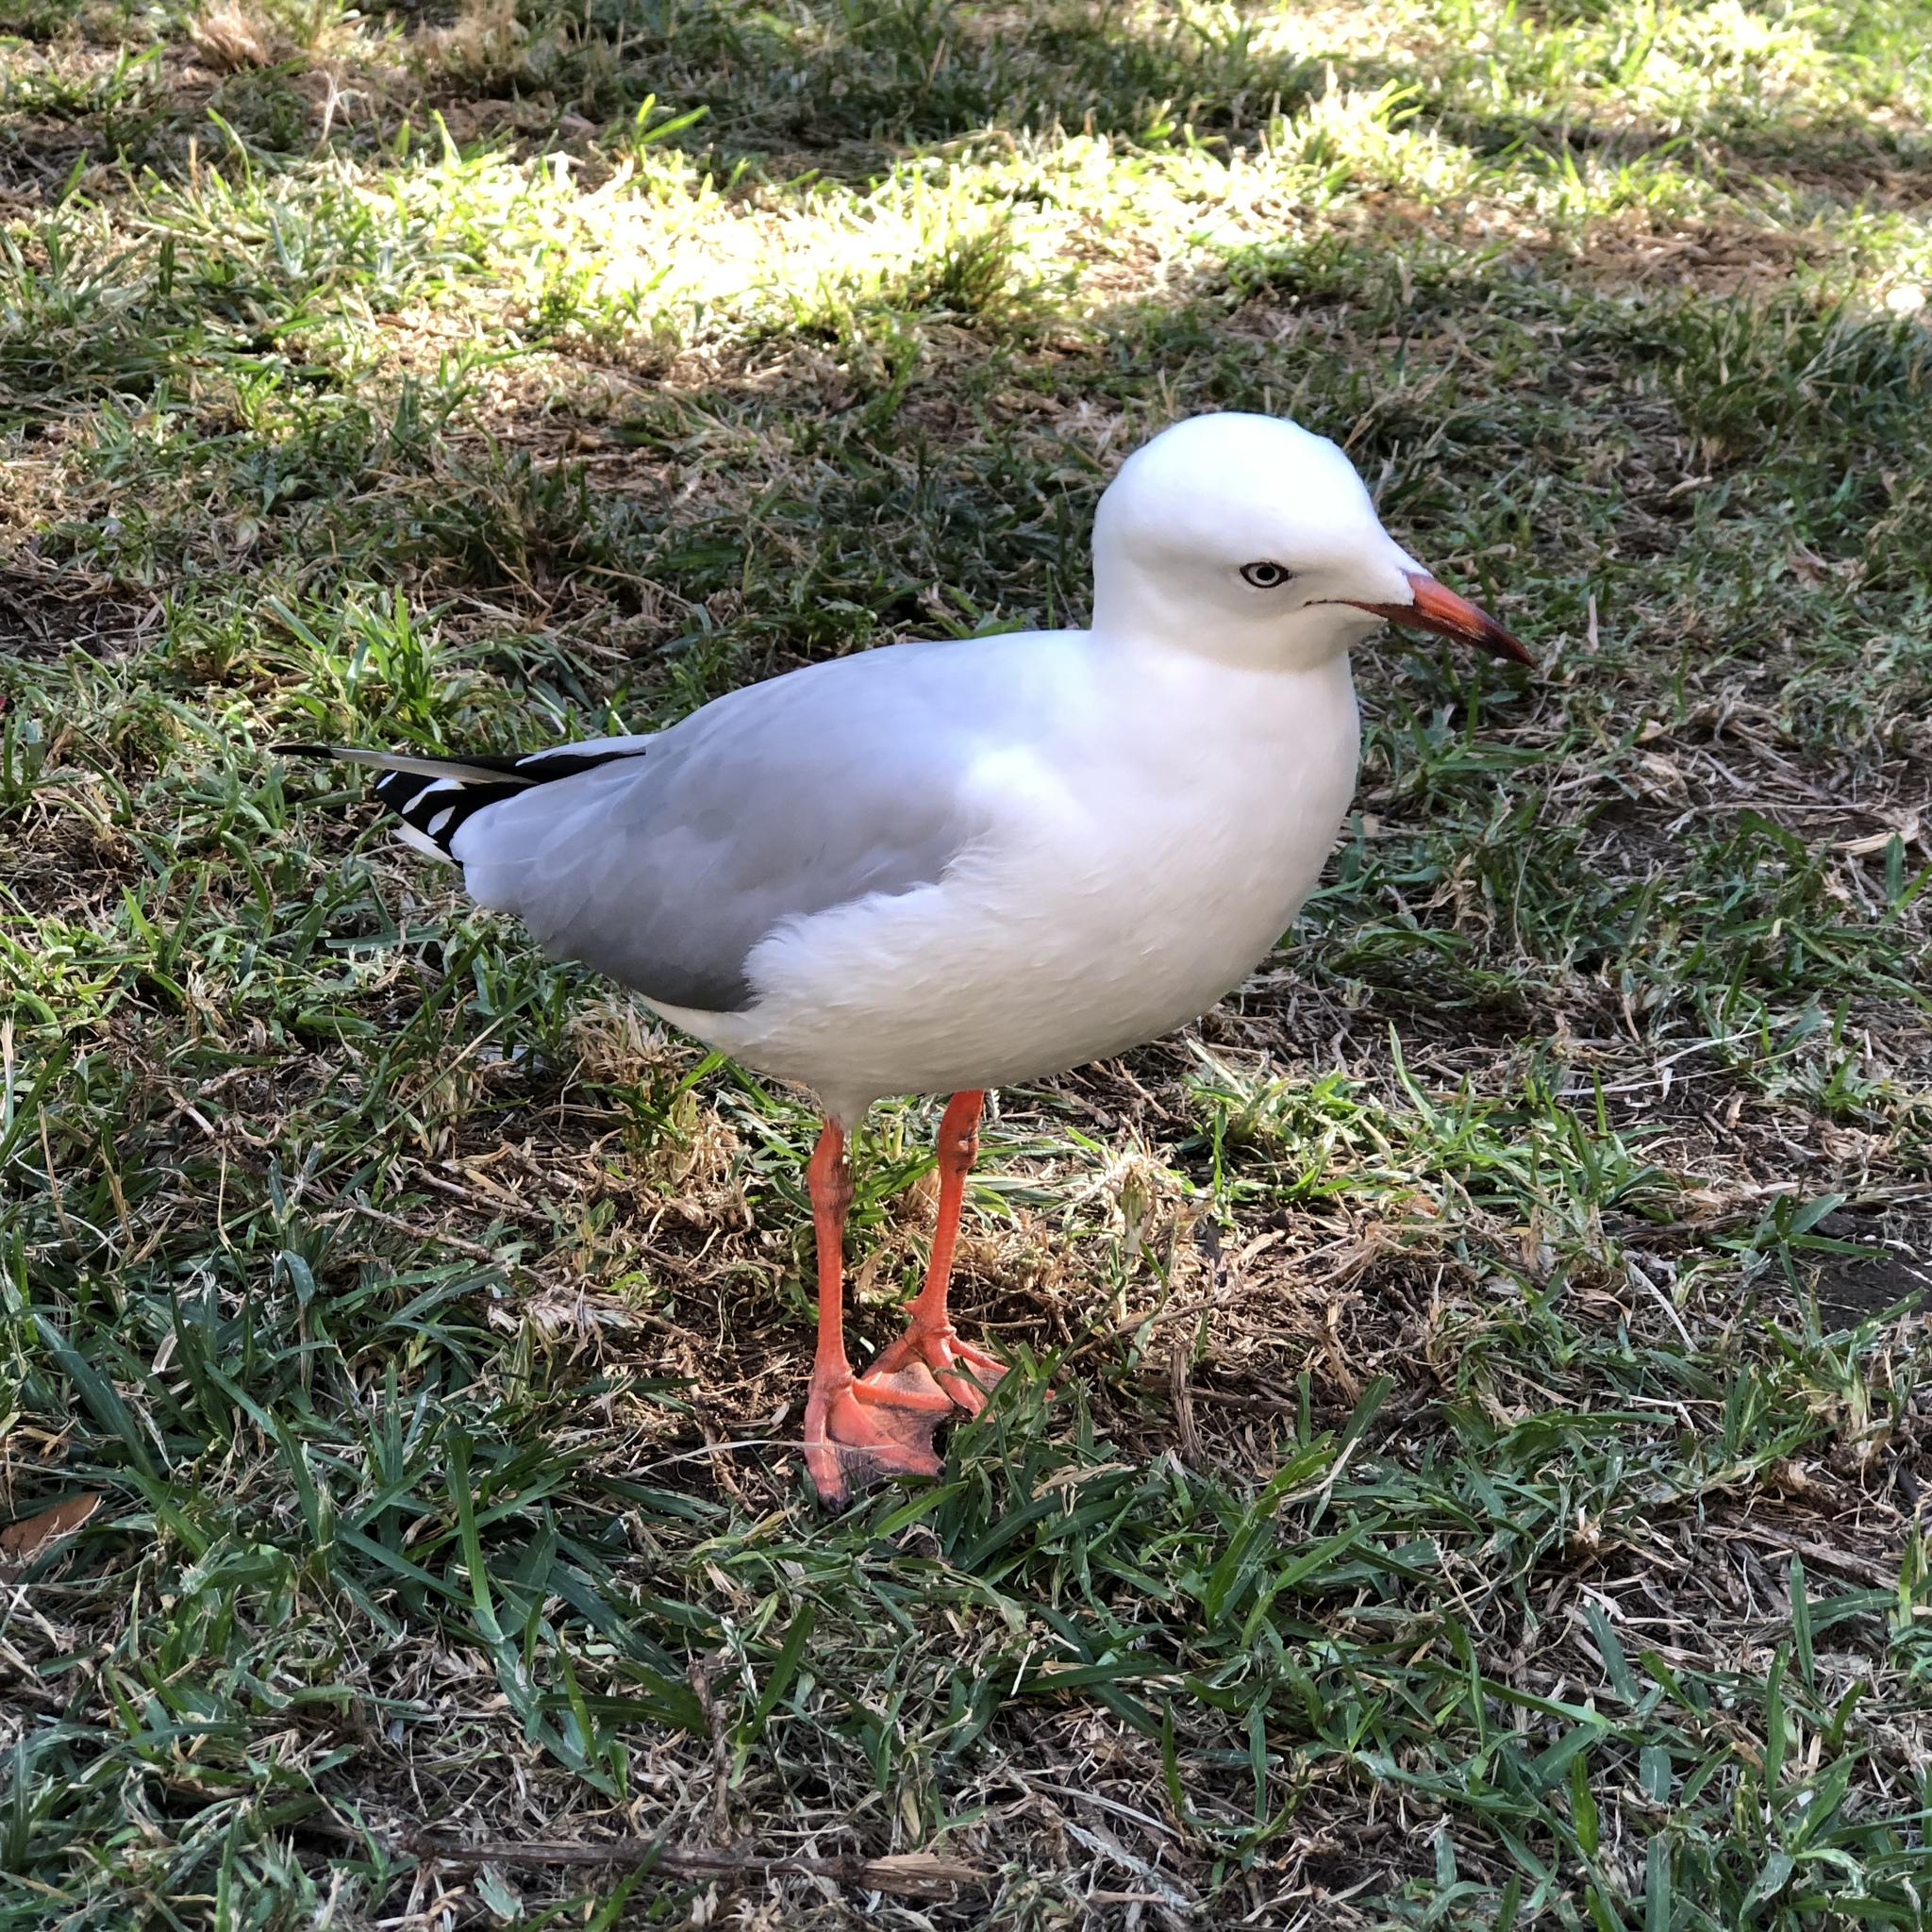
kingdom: Animalia
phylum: Chordata
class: Aves
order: Charadriiformes
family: Laridae
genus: Chroicocephalus
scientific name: Chroicocephalus novaehollandiae
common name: Silver gull
